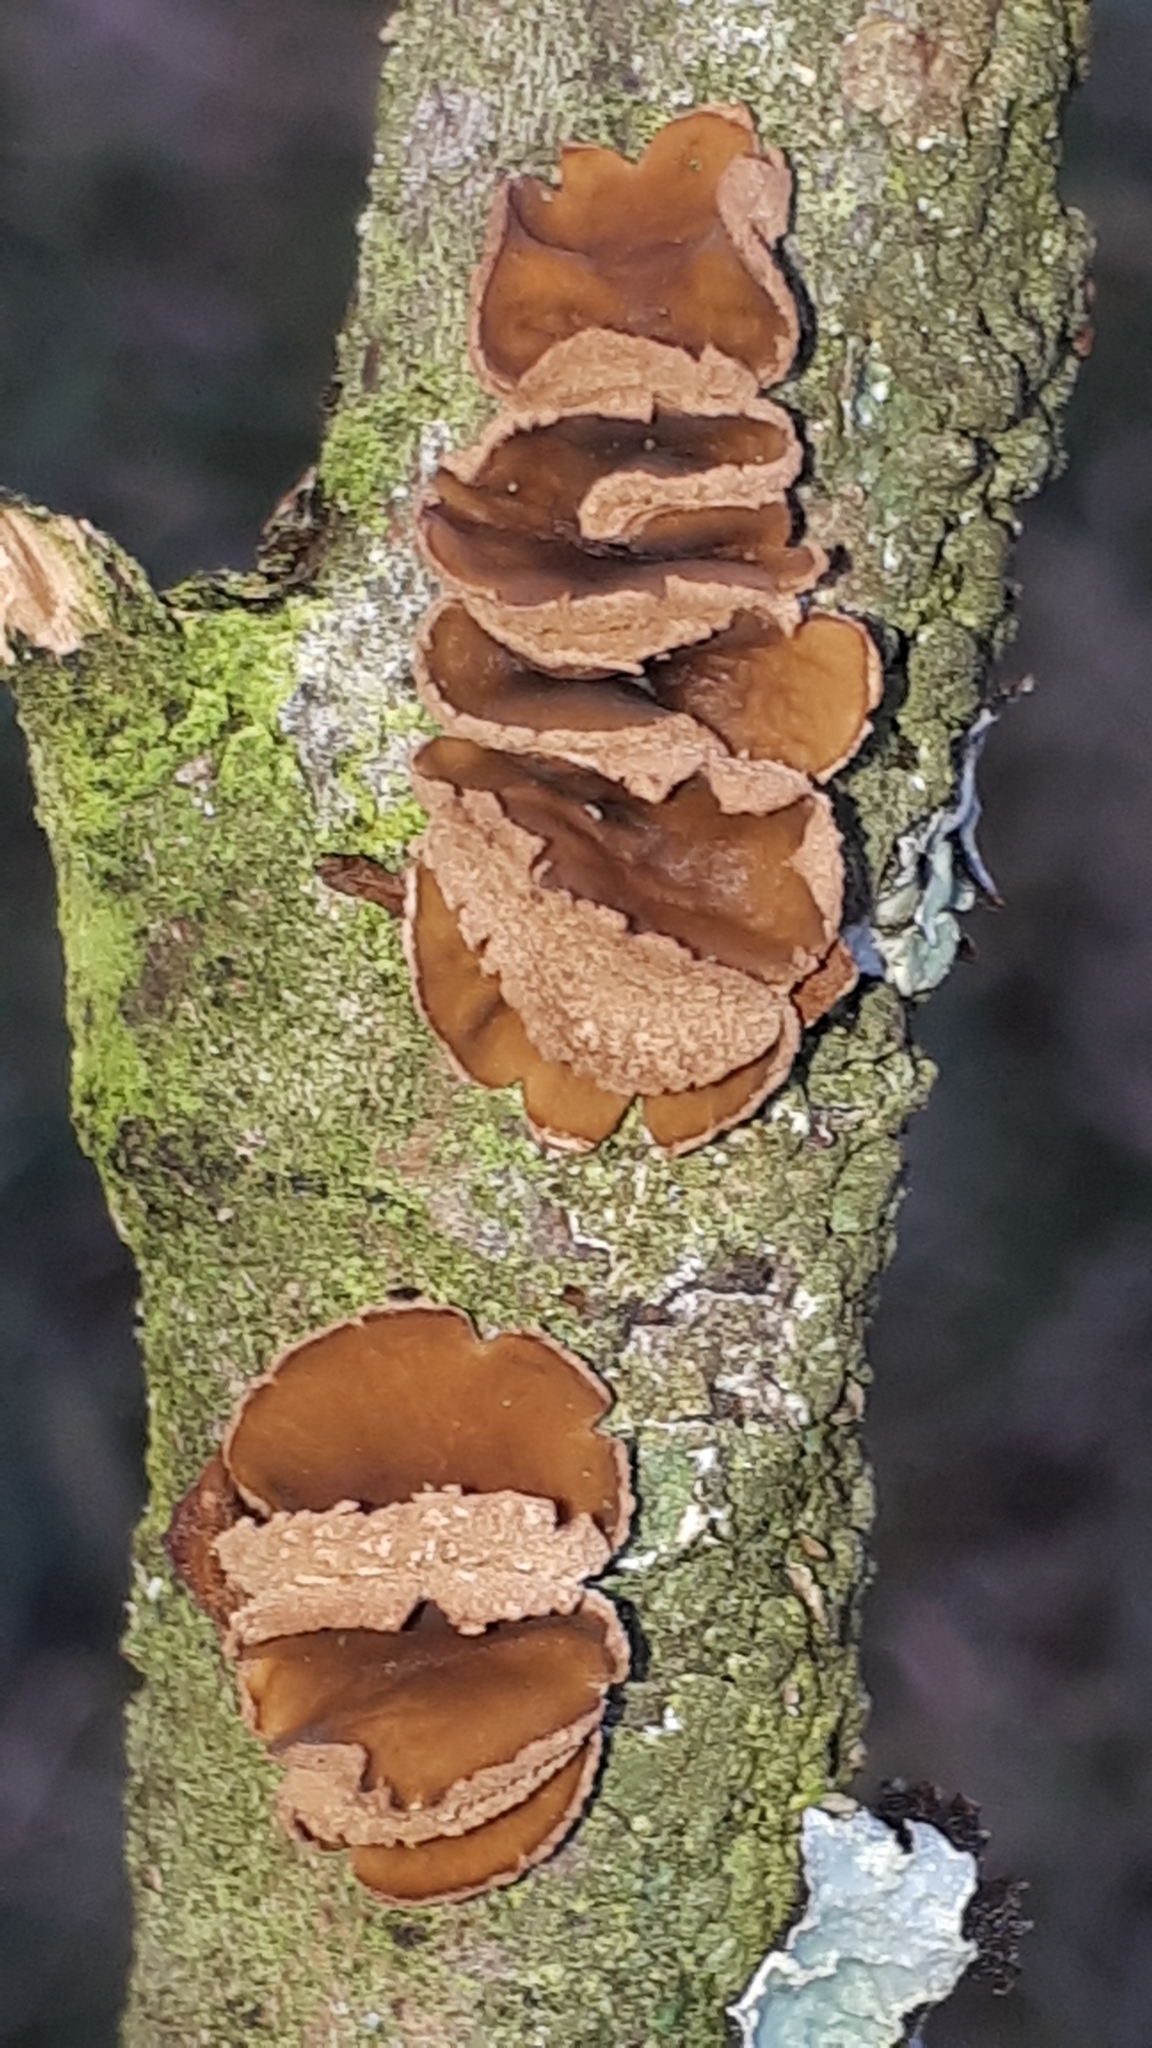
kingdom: Fungi
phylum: Ascomycota
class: Leotiomycetes
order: Helotiales
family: Cenangiaceae
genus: Encoelia
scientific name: Encoelia furfuracea
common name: Spring hazelcup
